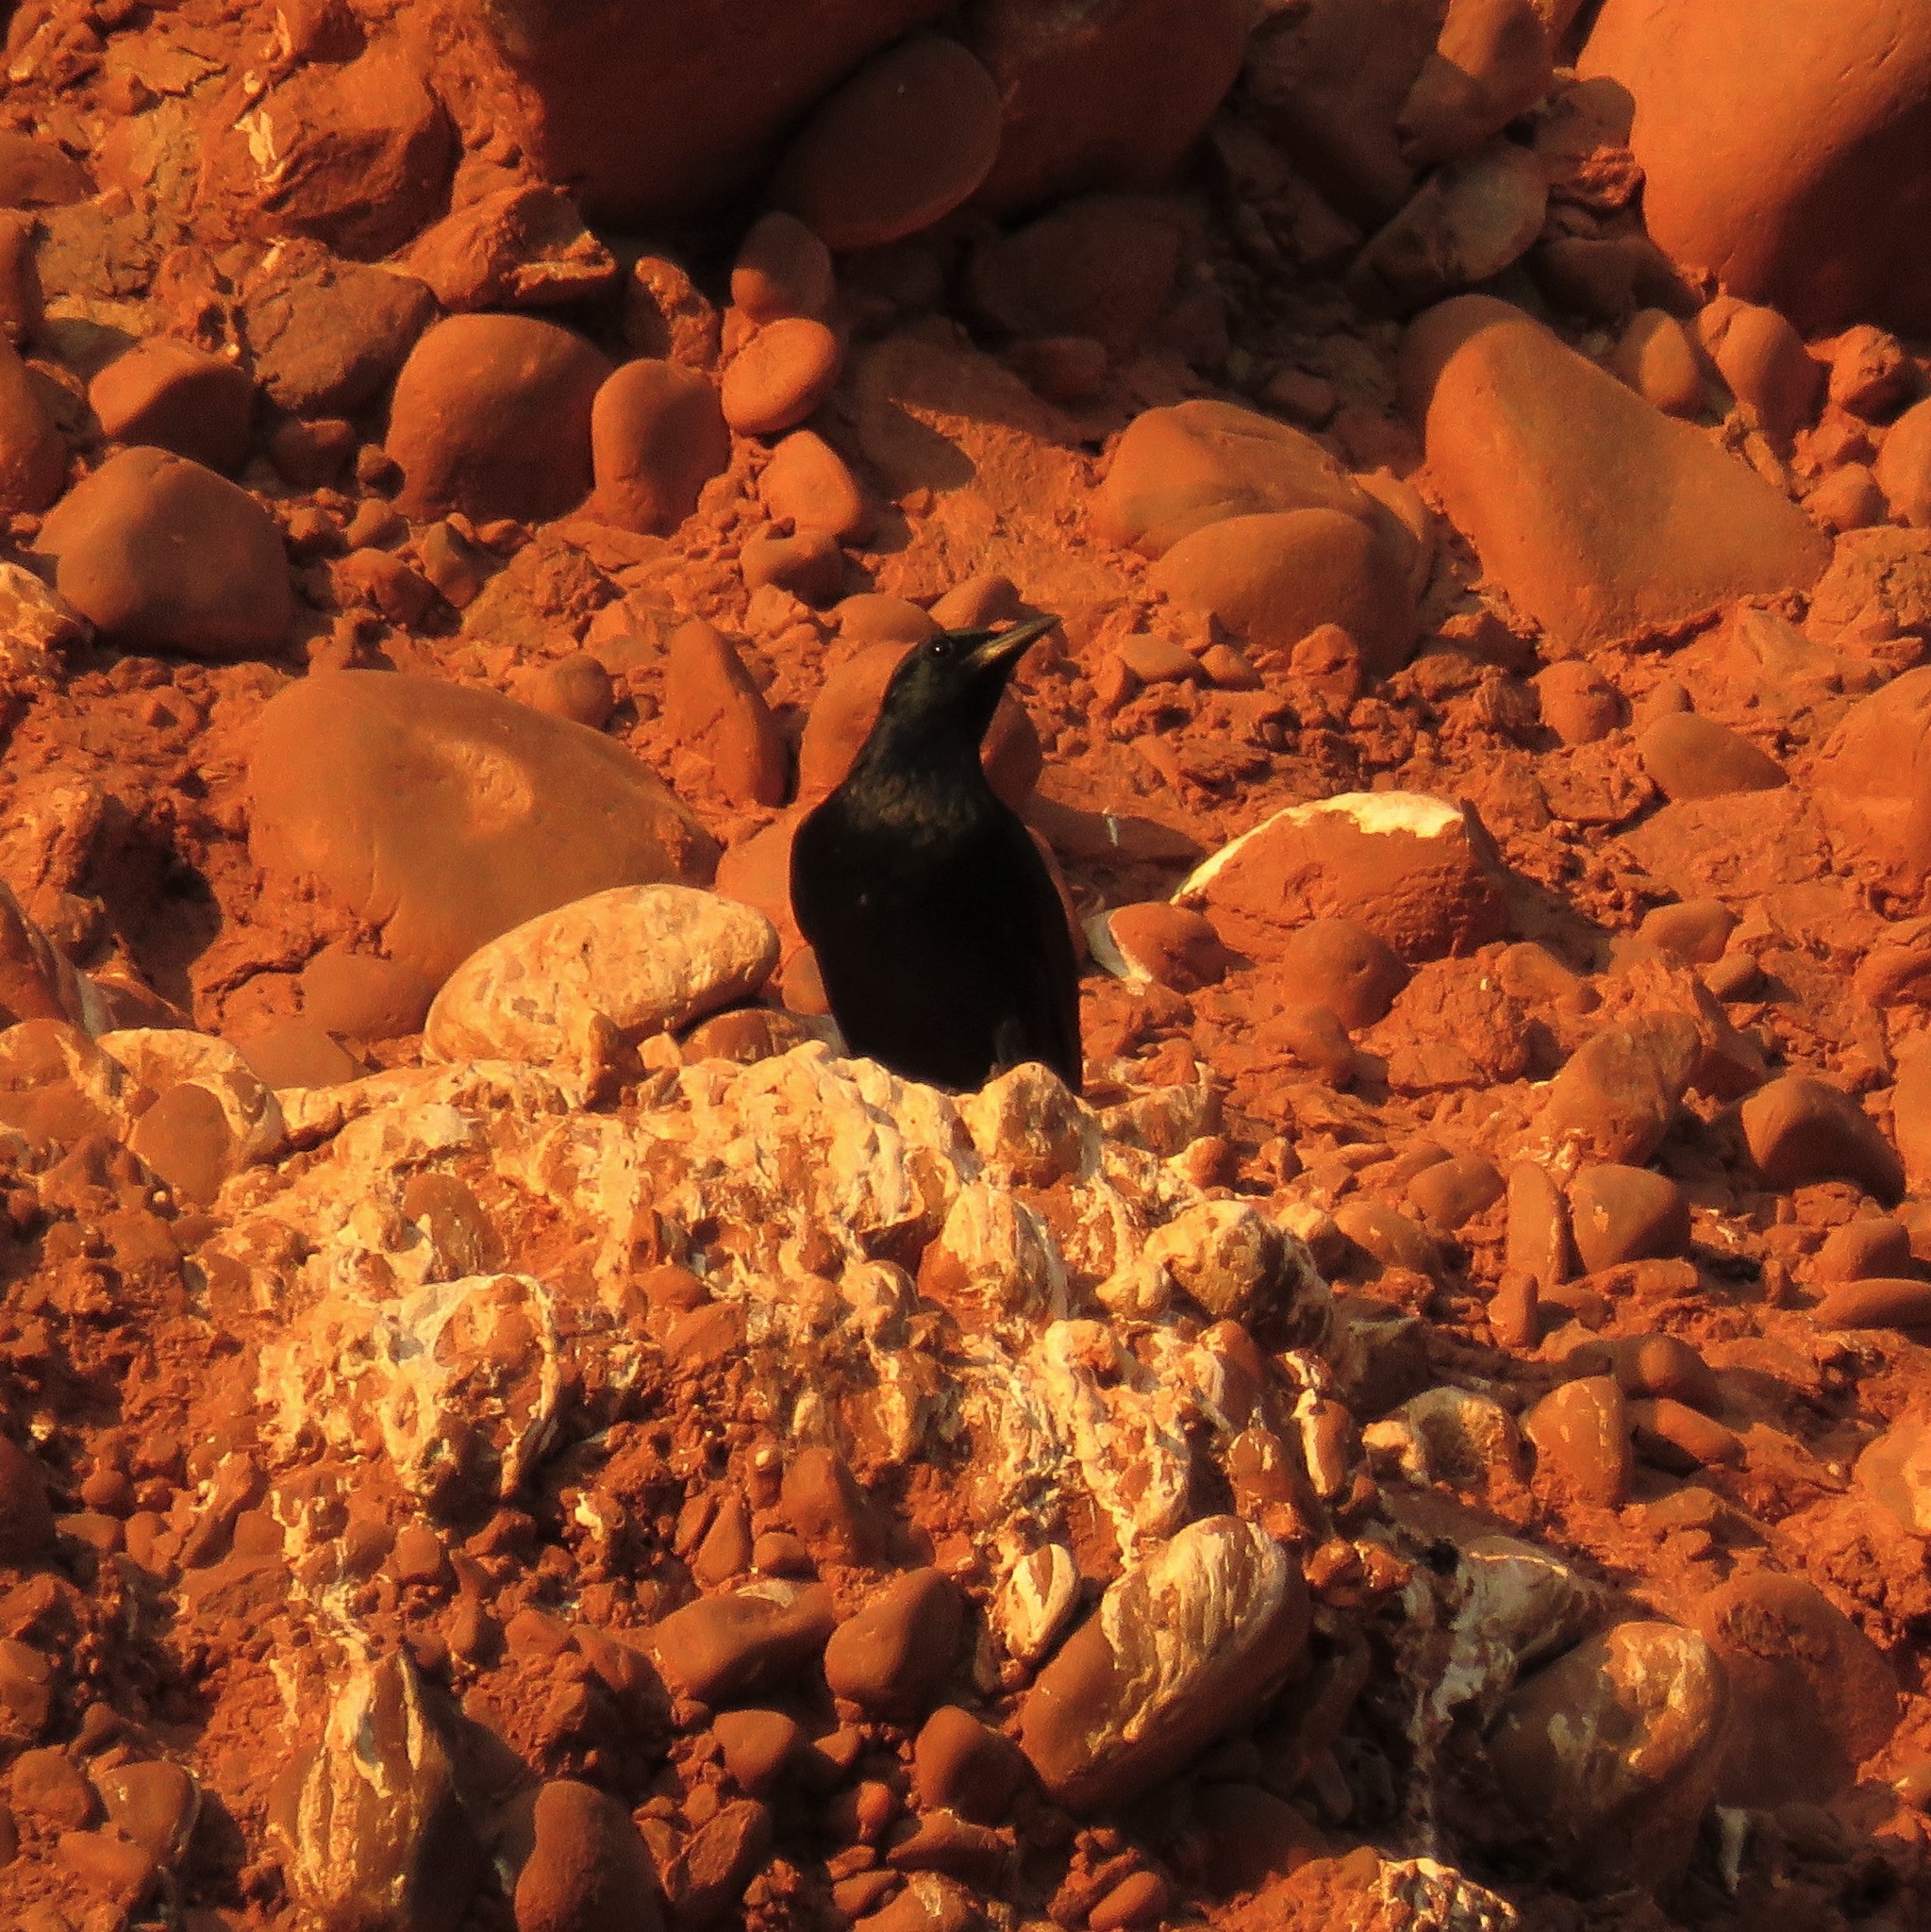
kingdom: Animalia
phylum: Chordata
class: Aves
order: Passeriformes
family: Sturnidae
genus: Onychognathus
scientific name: Onychognathus morio
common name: Red-winged starling
